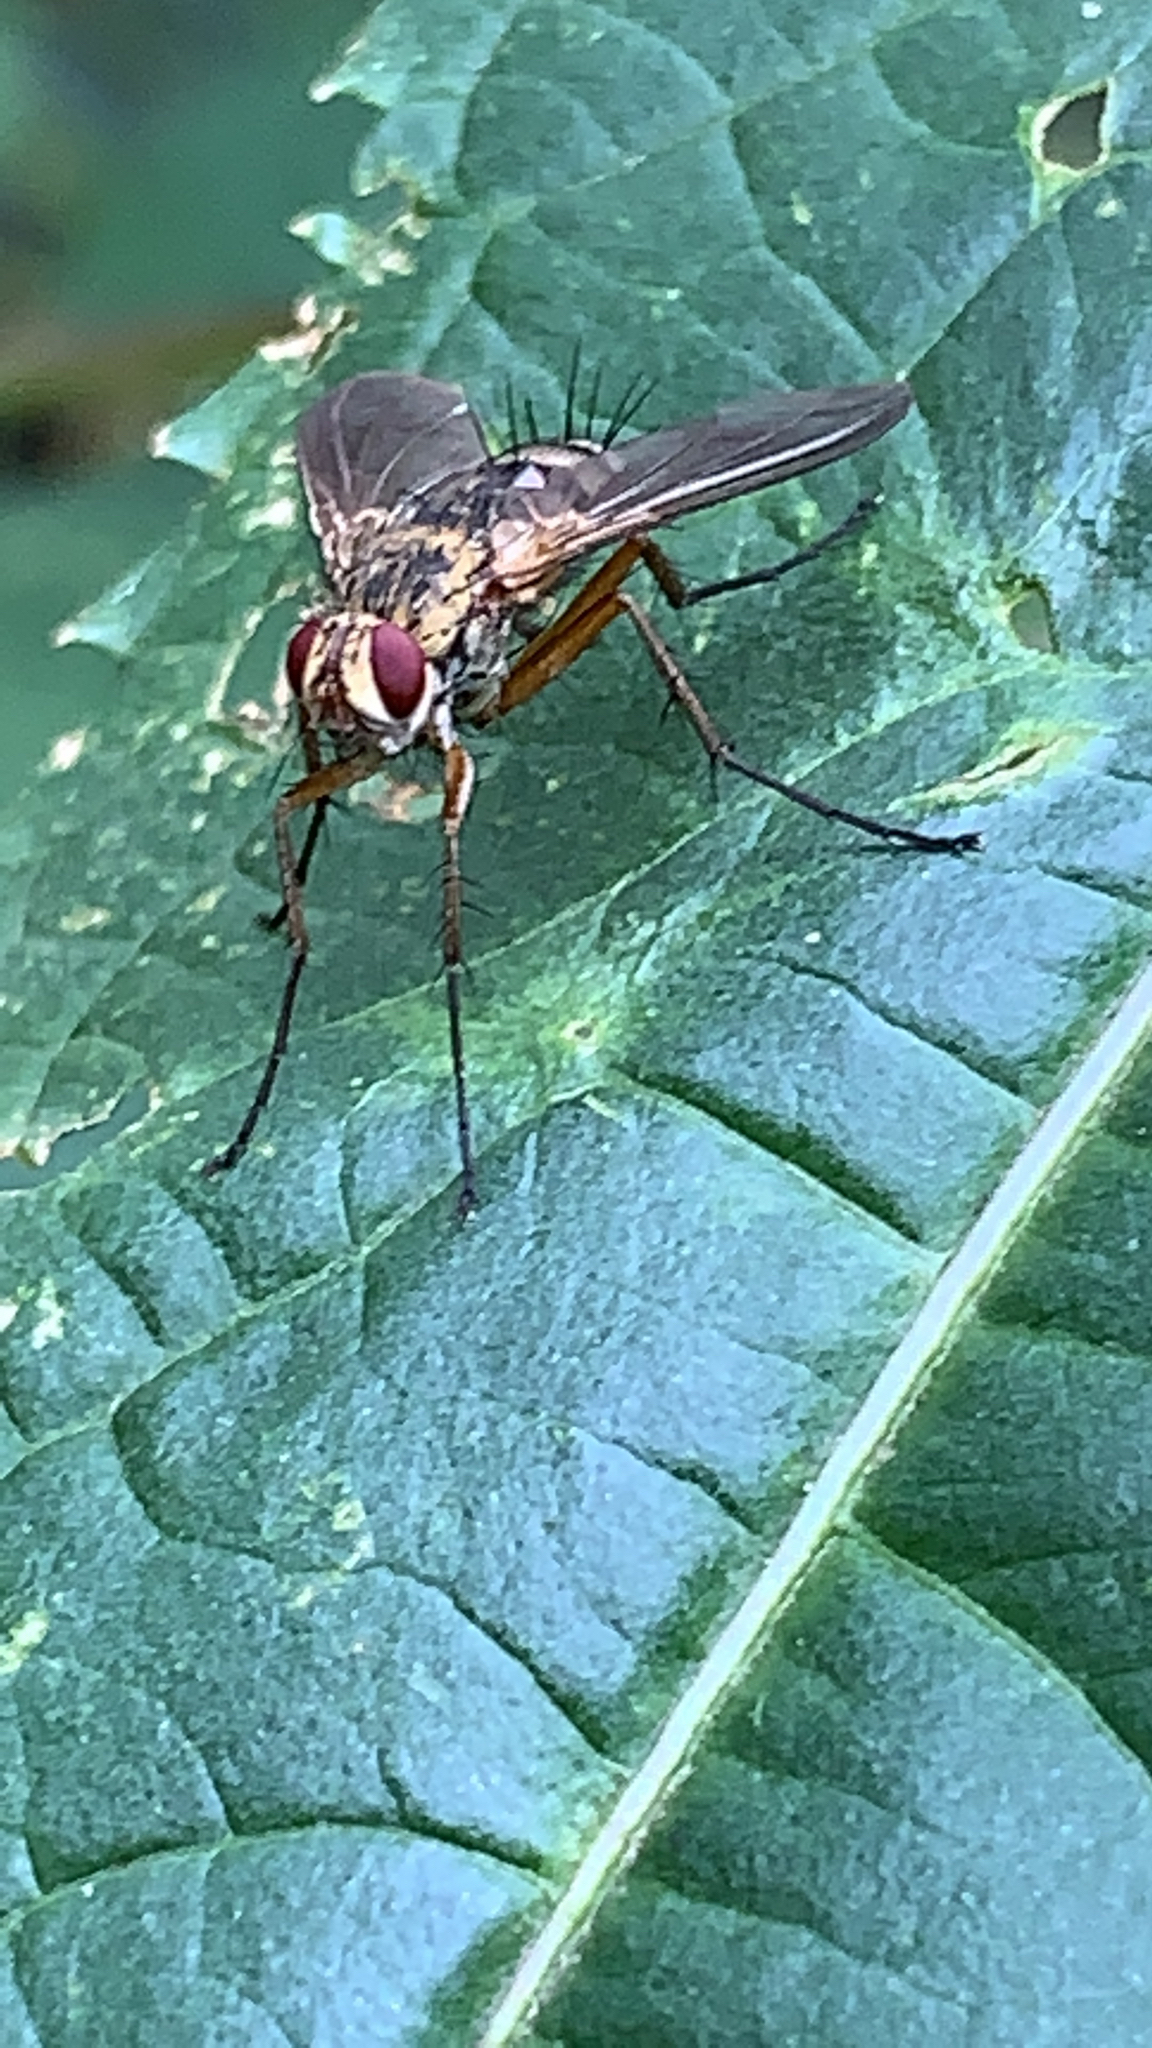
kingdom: Animalia
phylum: Arthropoda
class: Insecta
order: Diptera
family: Tachinidae
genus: Dexiosoma
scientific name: Dexiosoma caninum
